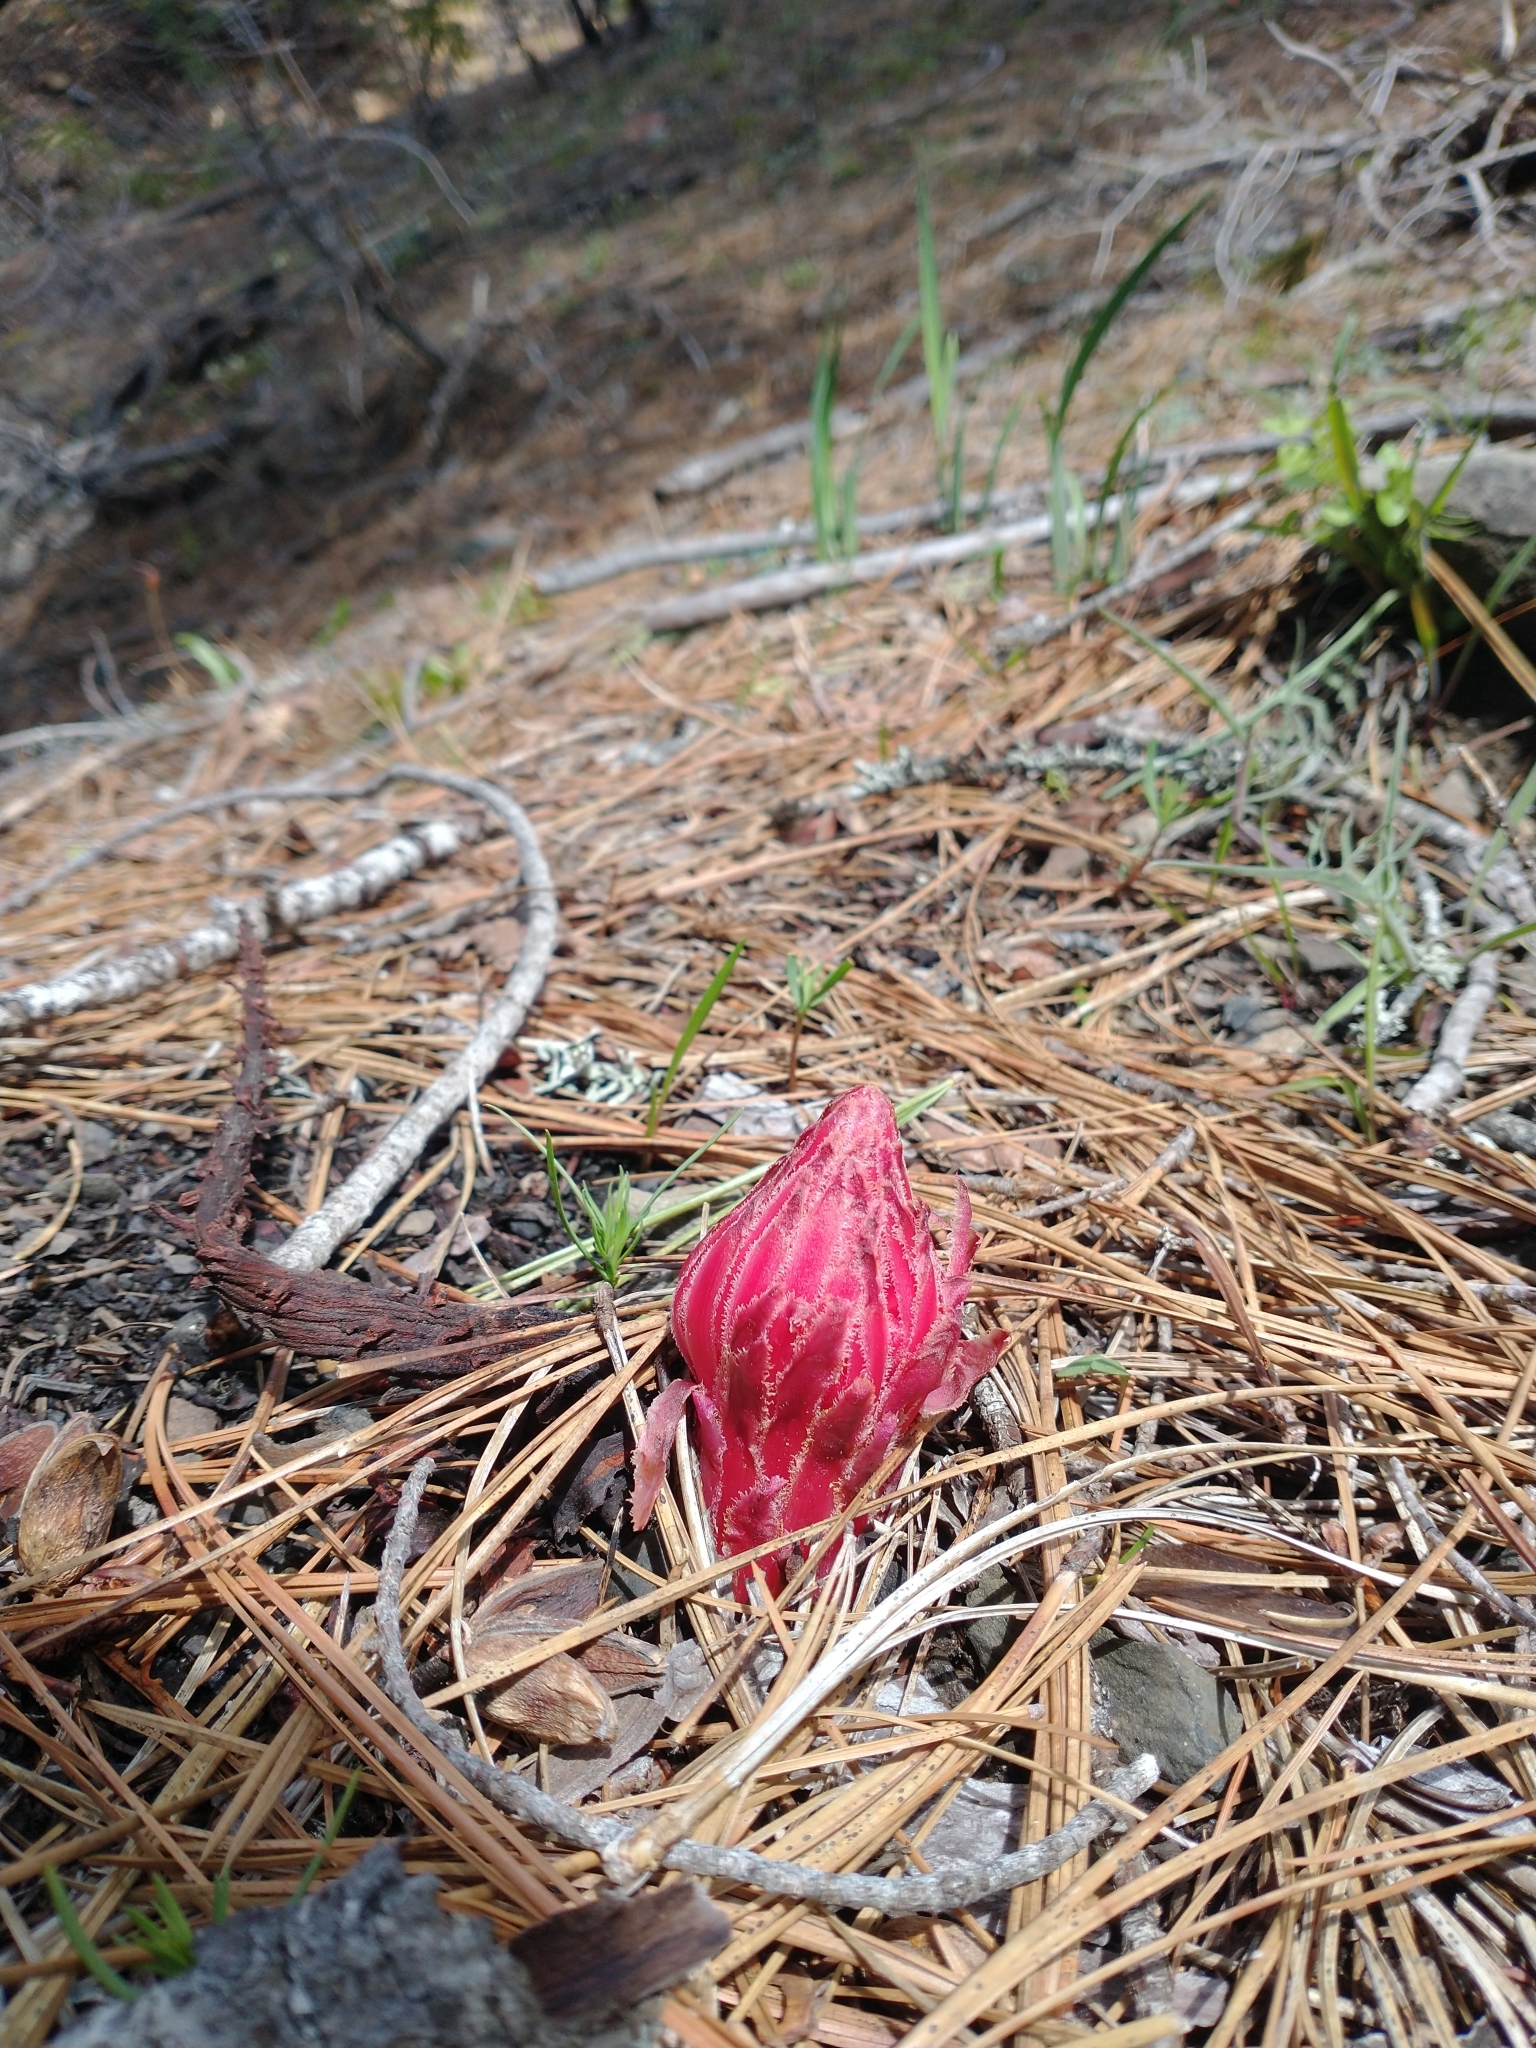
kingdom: Plantae
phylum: Tracheophyta
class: Magnoliopsida
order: Ericales
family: Ericaceae
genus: Sarcodes
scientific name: Sarcodes sanguinea
